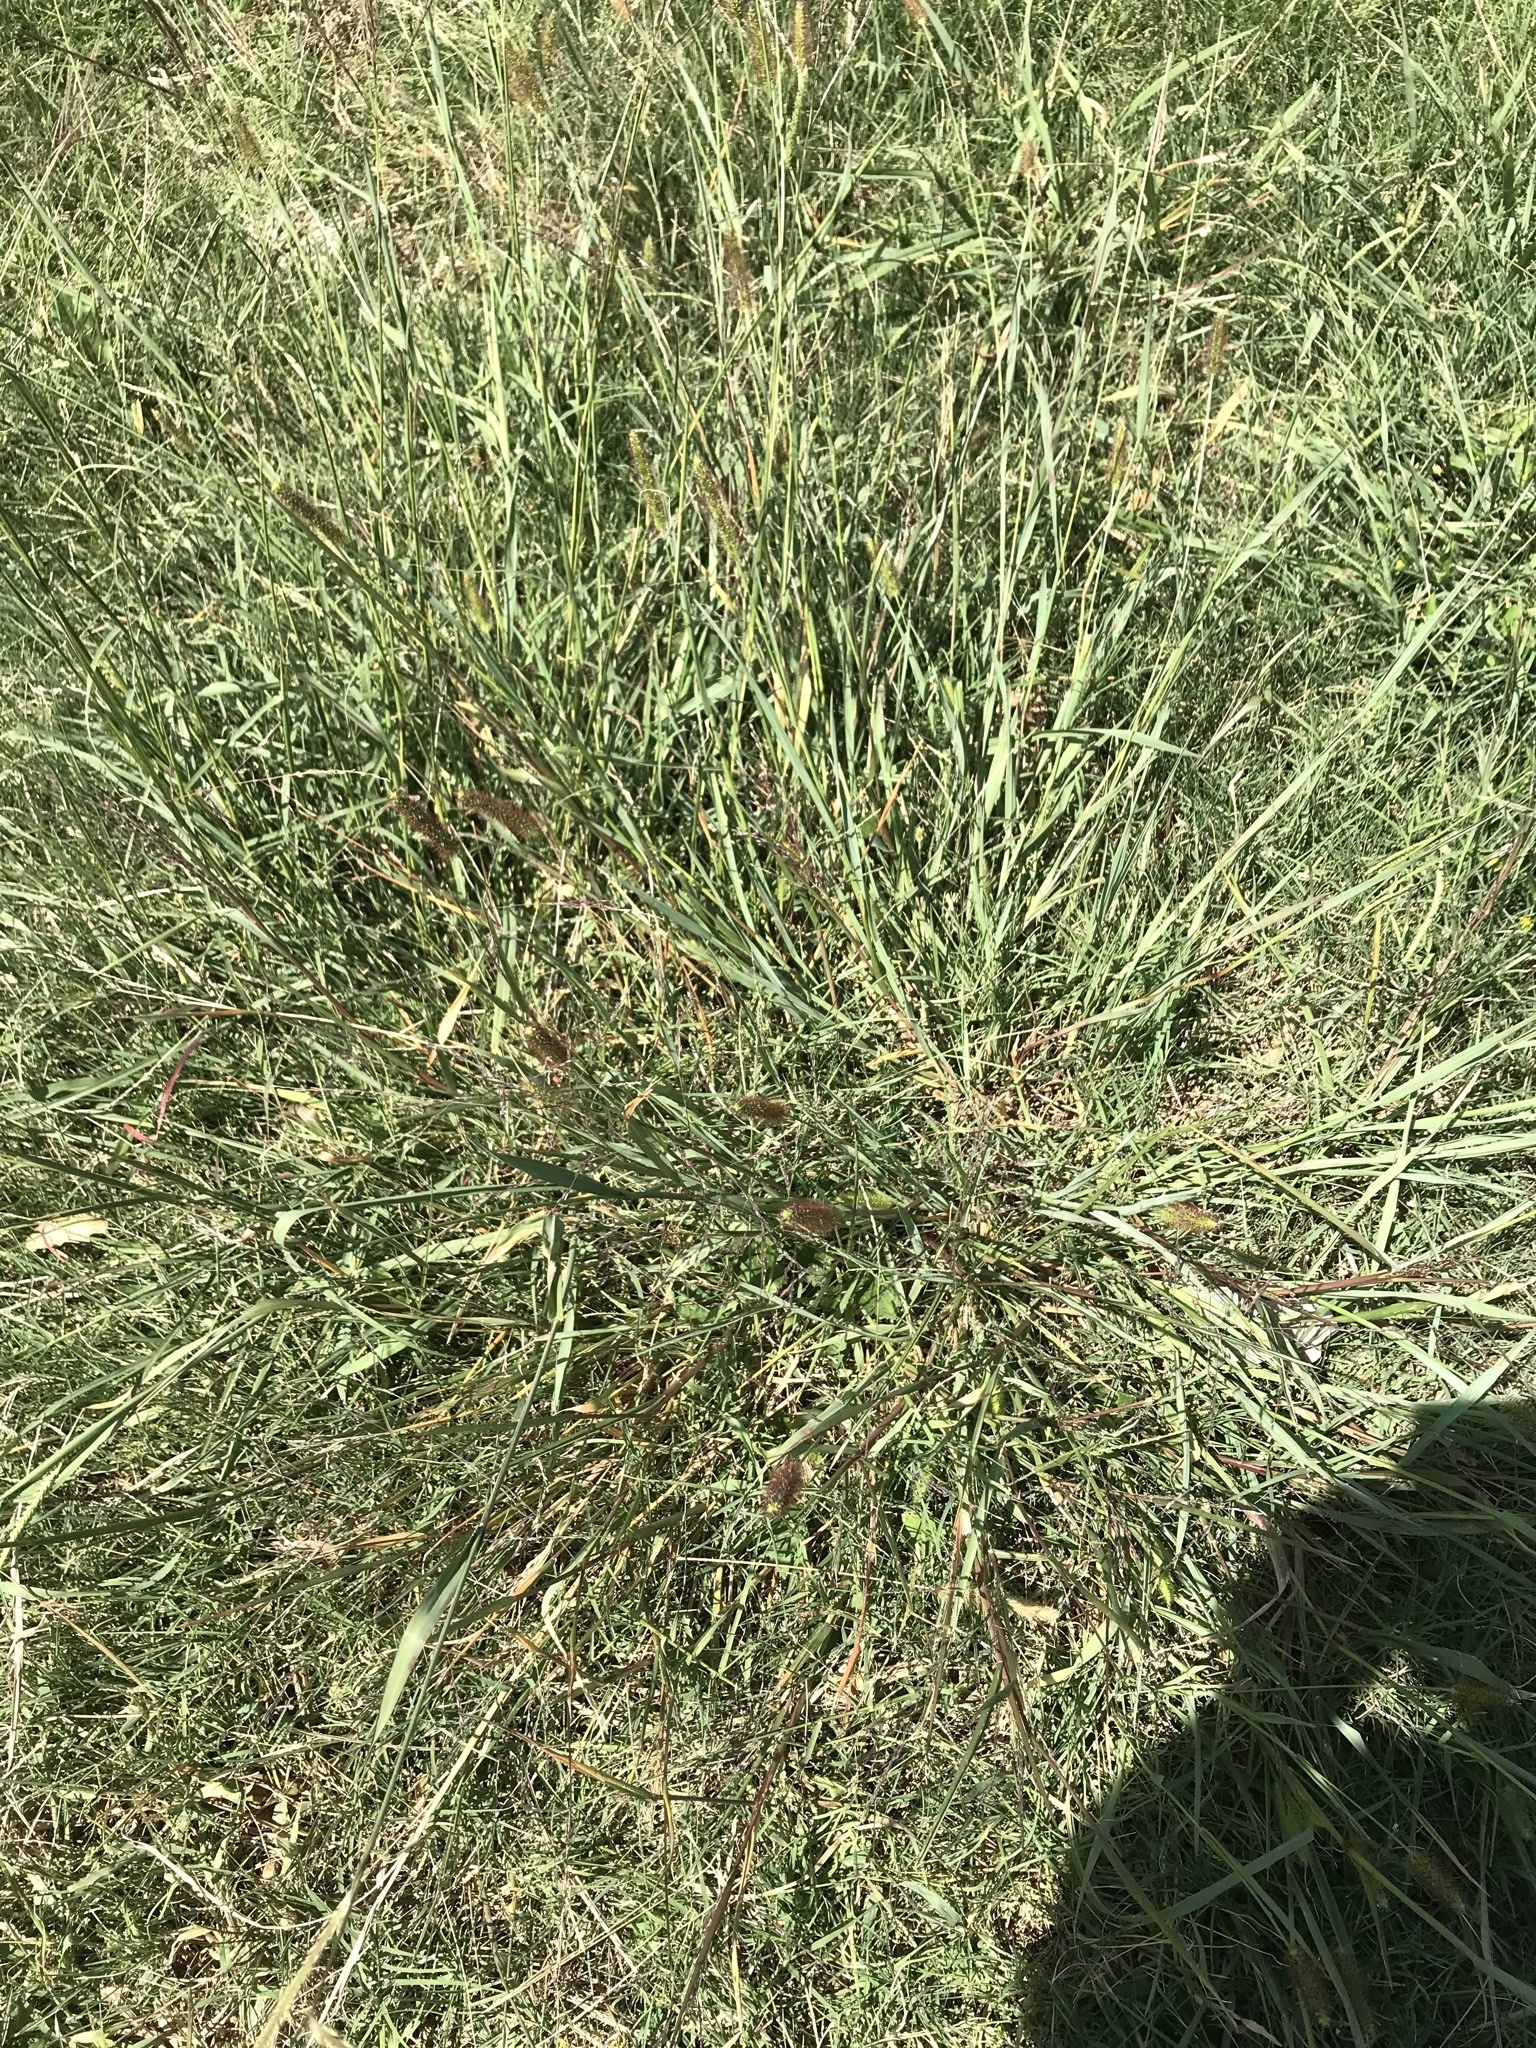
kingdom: Plantae
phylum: Tracheophyta
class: Liliopsida
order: Poales
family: Poaceae
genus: Setaria
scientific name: Setaria viridis
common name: Green bristlegrass
